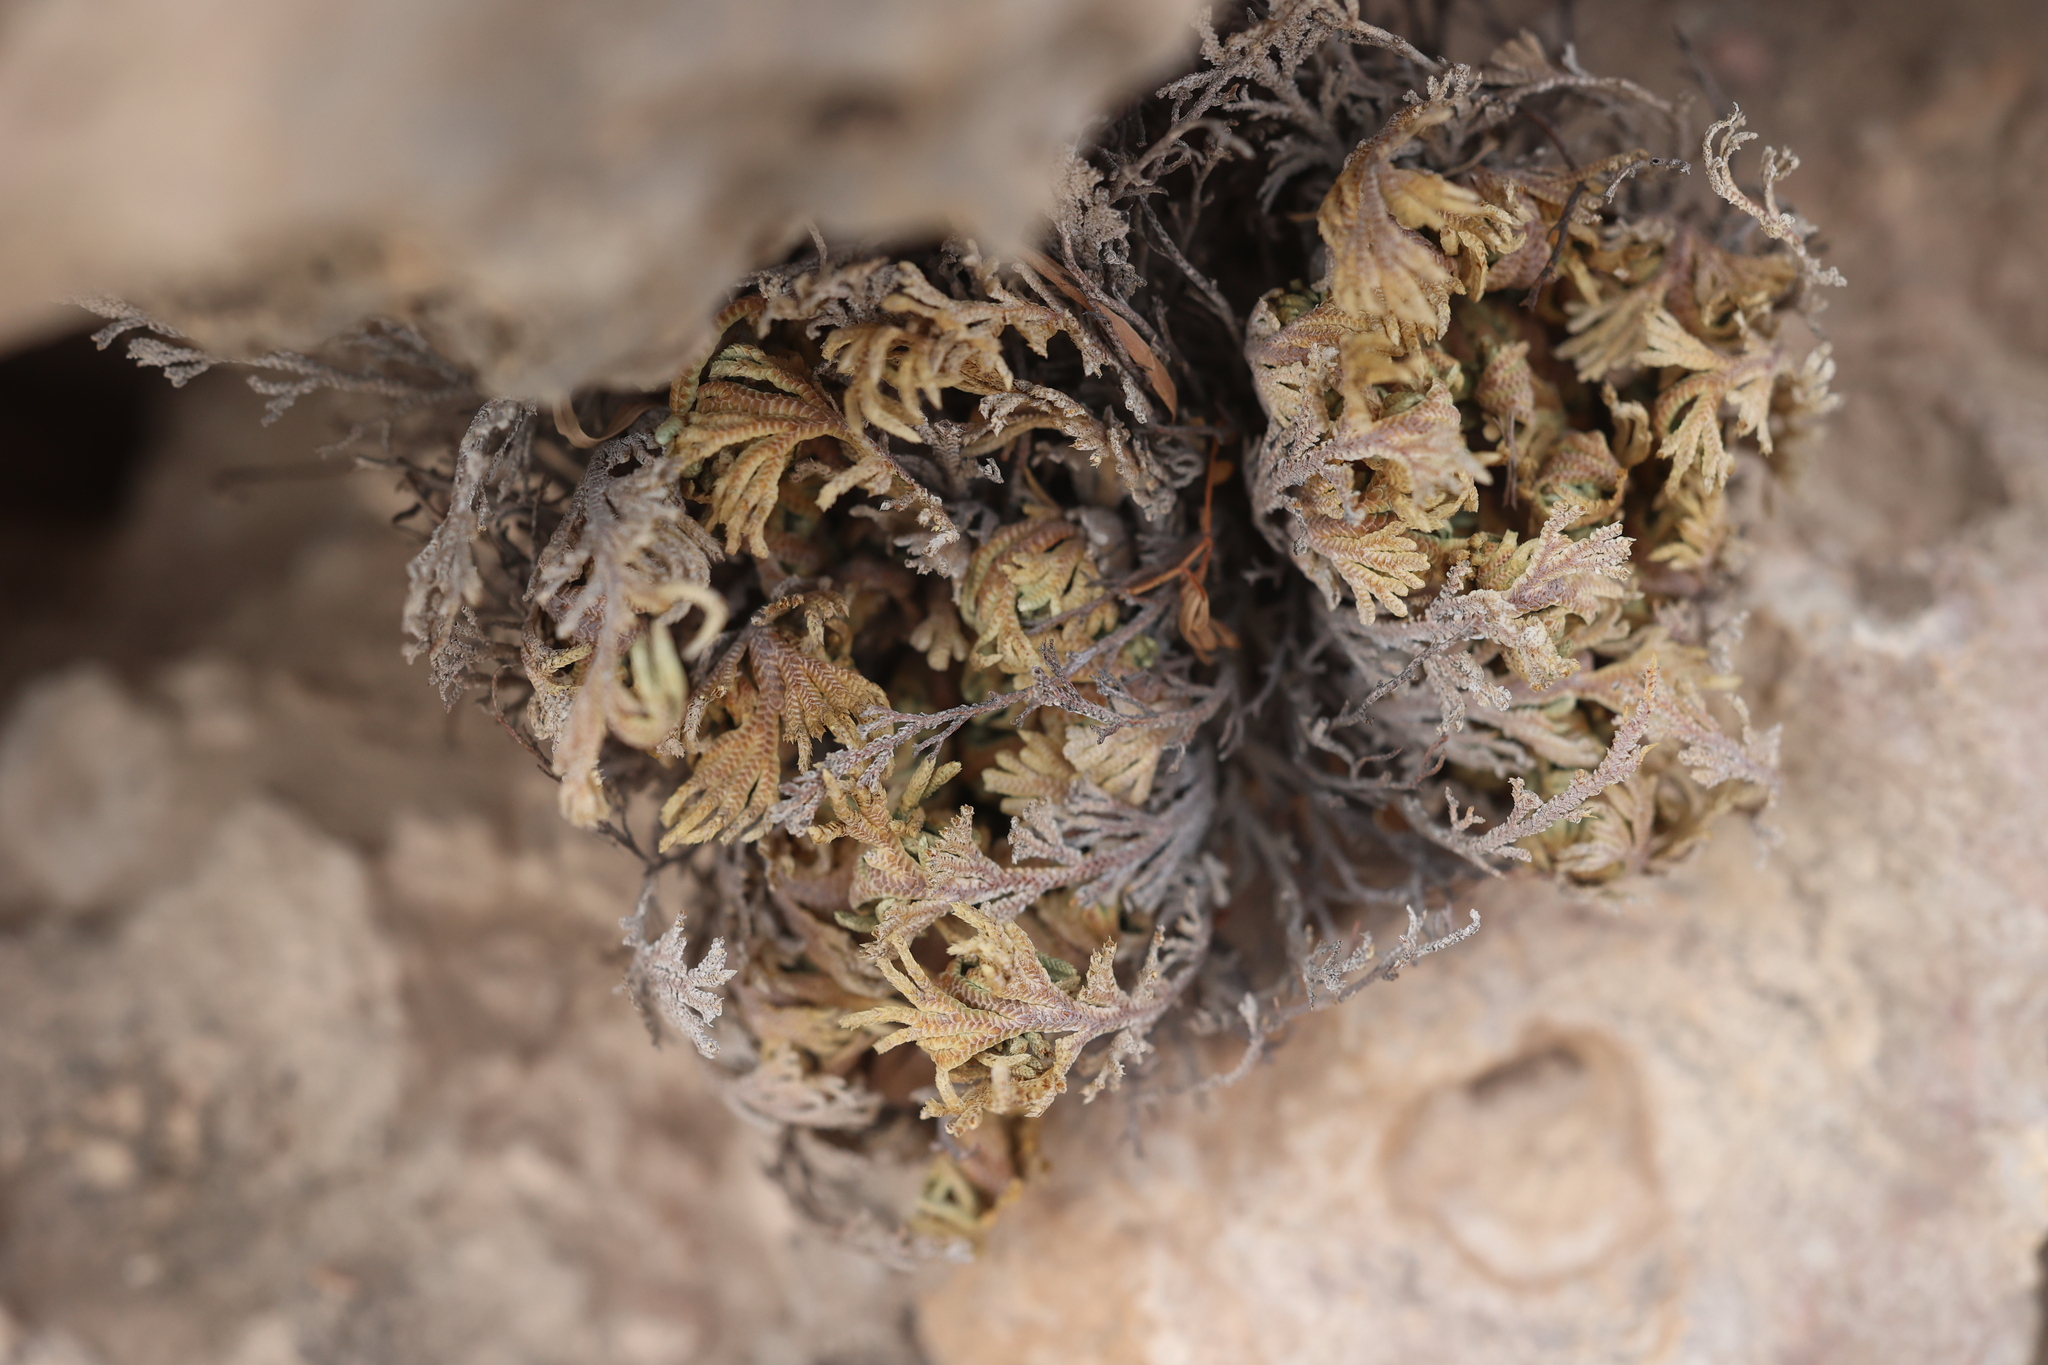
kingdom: Plantae
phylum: Tracheophyta
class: Lycopodiopsida
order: Selaginellales
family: Selaginellaceae
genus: Selaginella
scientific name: Selaginella lepidophylla
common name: Rose-of-jericho
